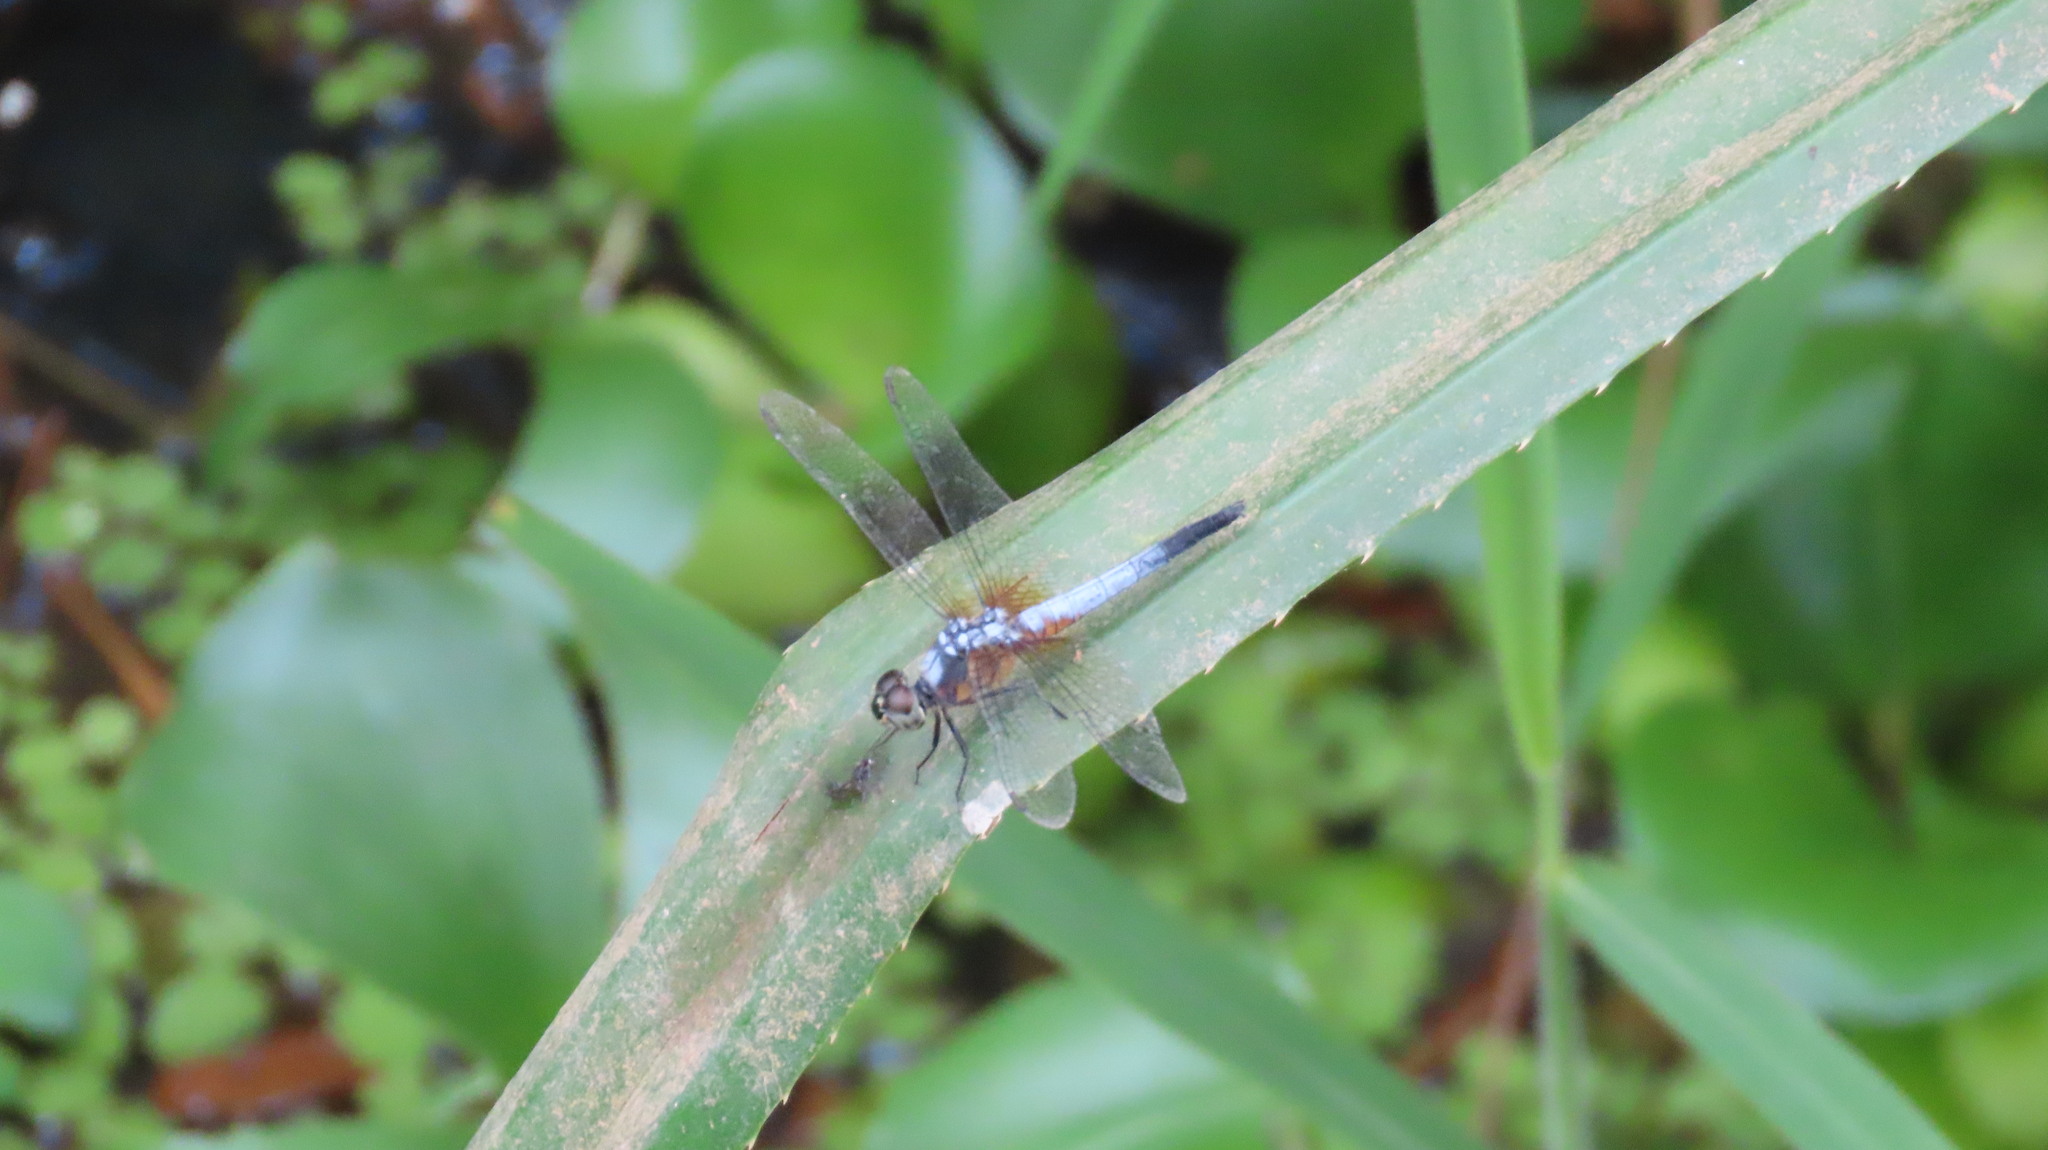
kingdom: Animalia
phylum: Arthropoda
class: Insecta
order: Odonata
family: Libellulidae
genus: Brachydiplax
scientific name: Brachydiplax chalybea
